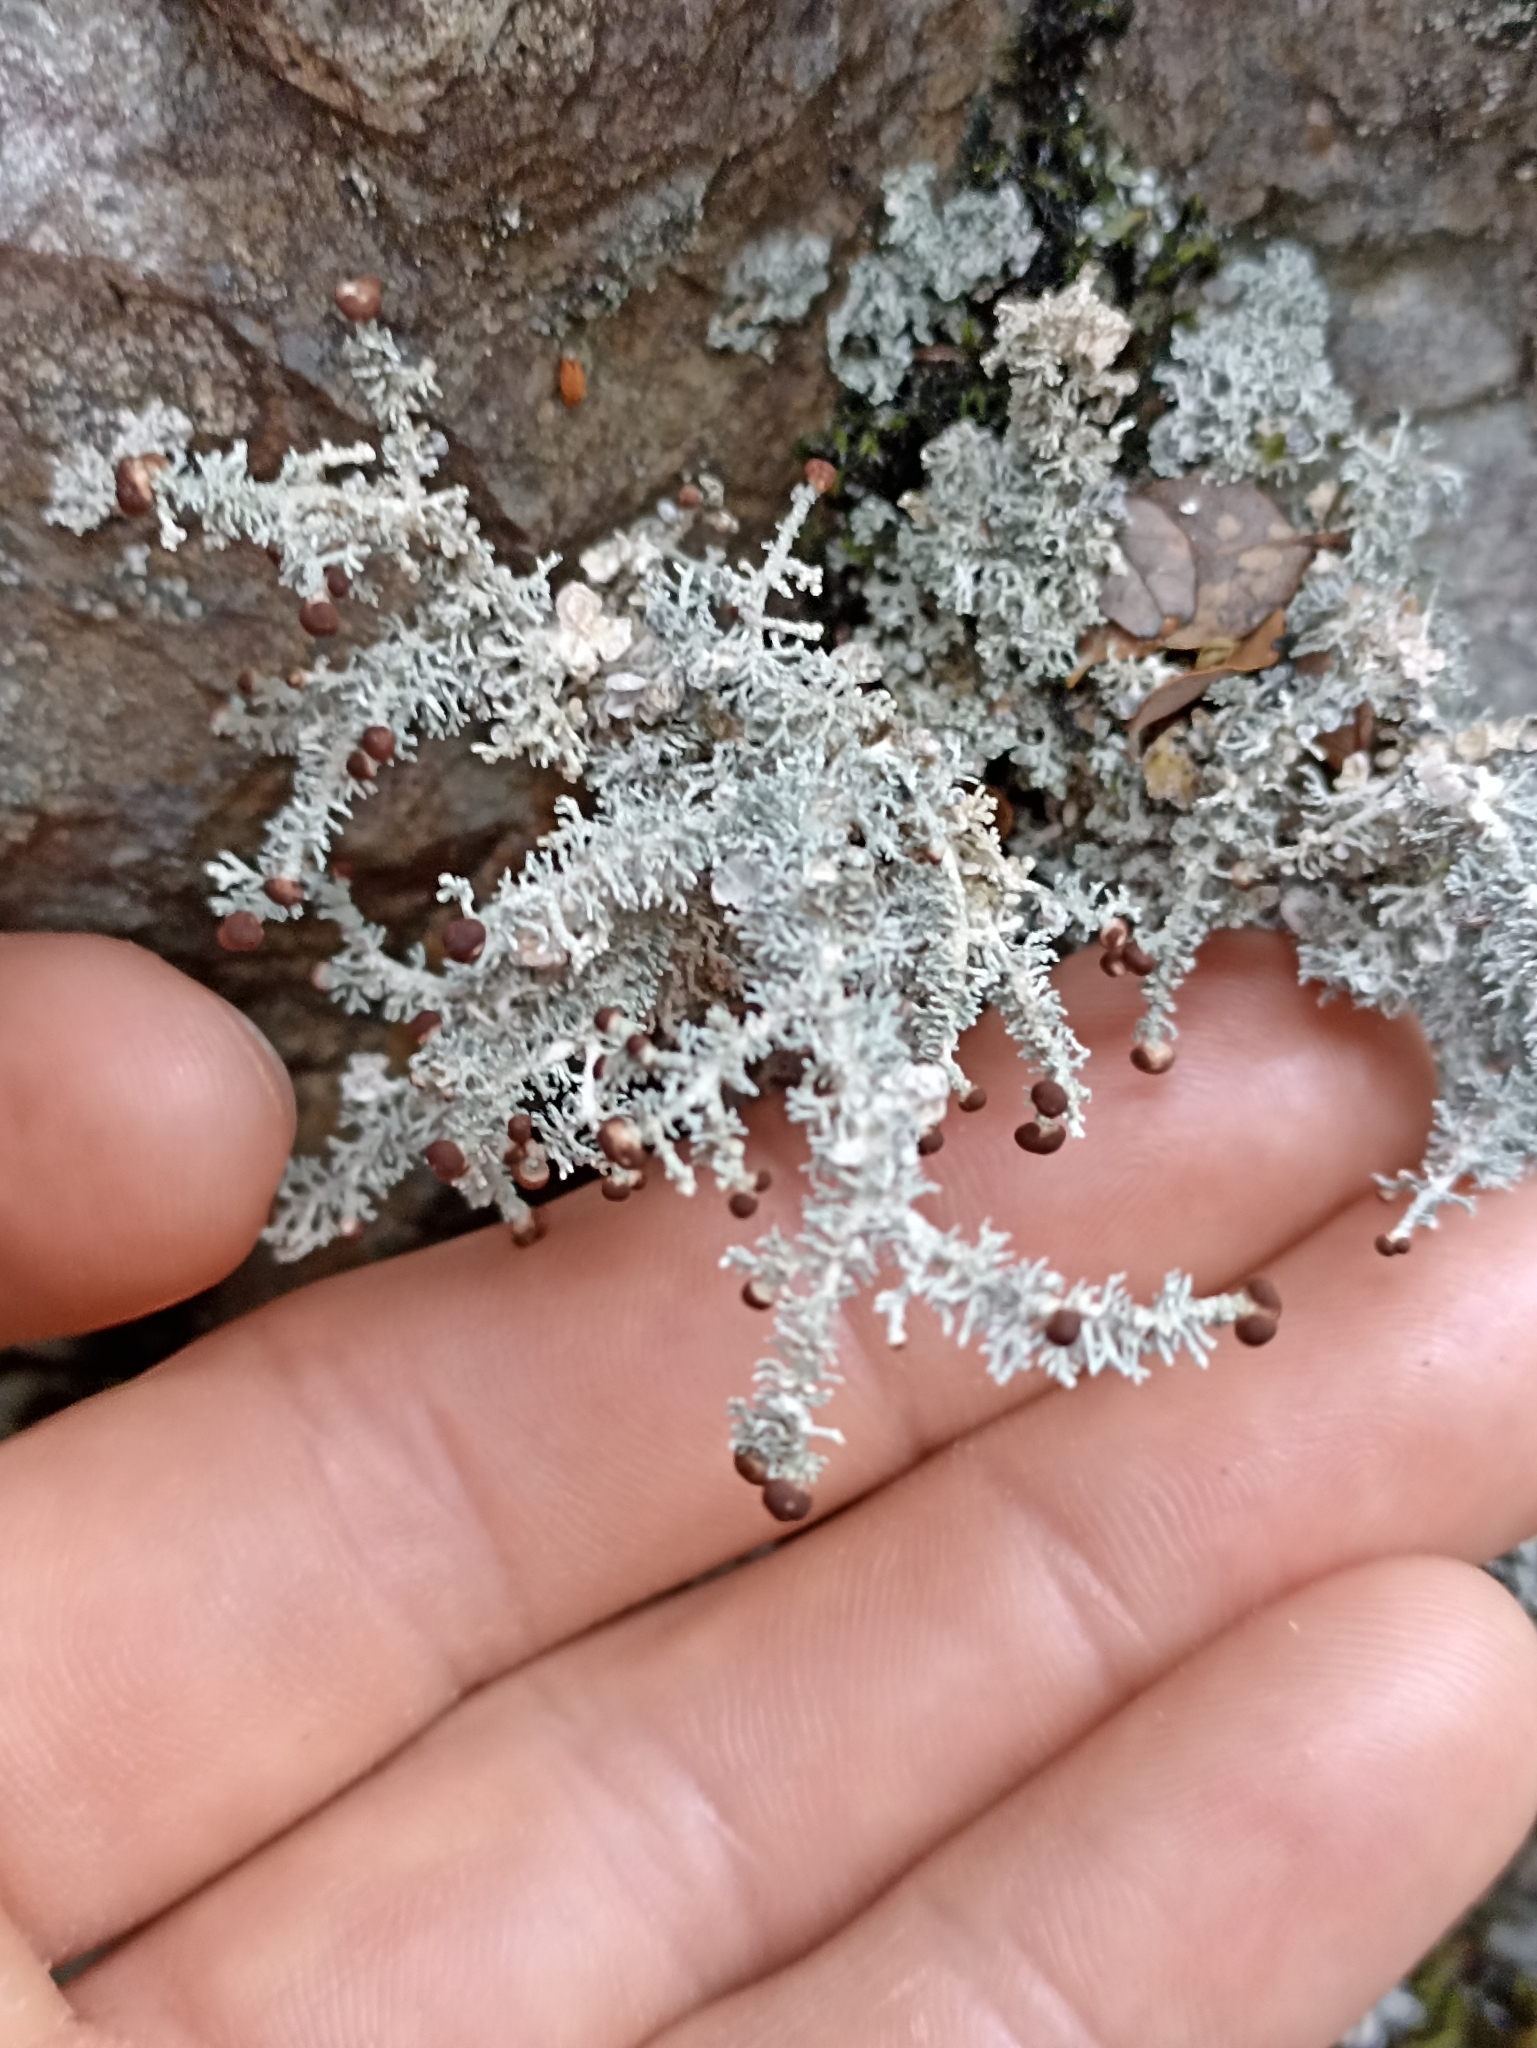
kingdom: Fungi
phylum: Ascomycota
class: Lecanoromycetes
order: Lecanorales
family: Stereocaulaceae
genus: Stereocaulon
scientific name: Stereocaulon ramulosum
